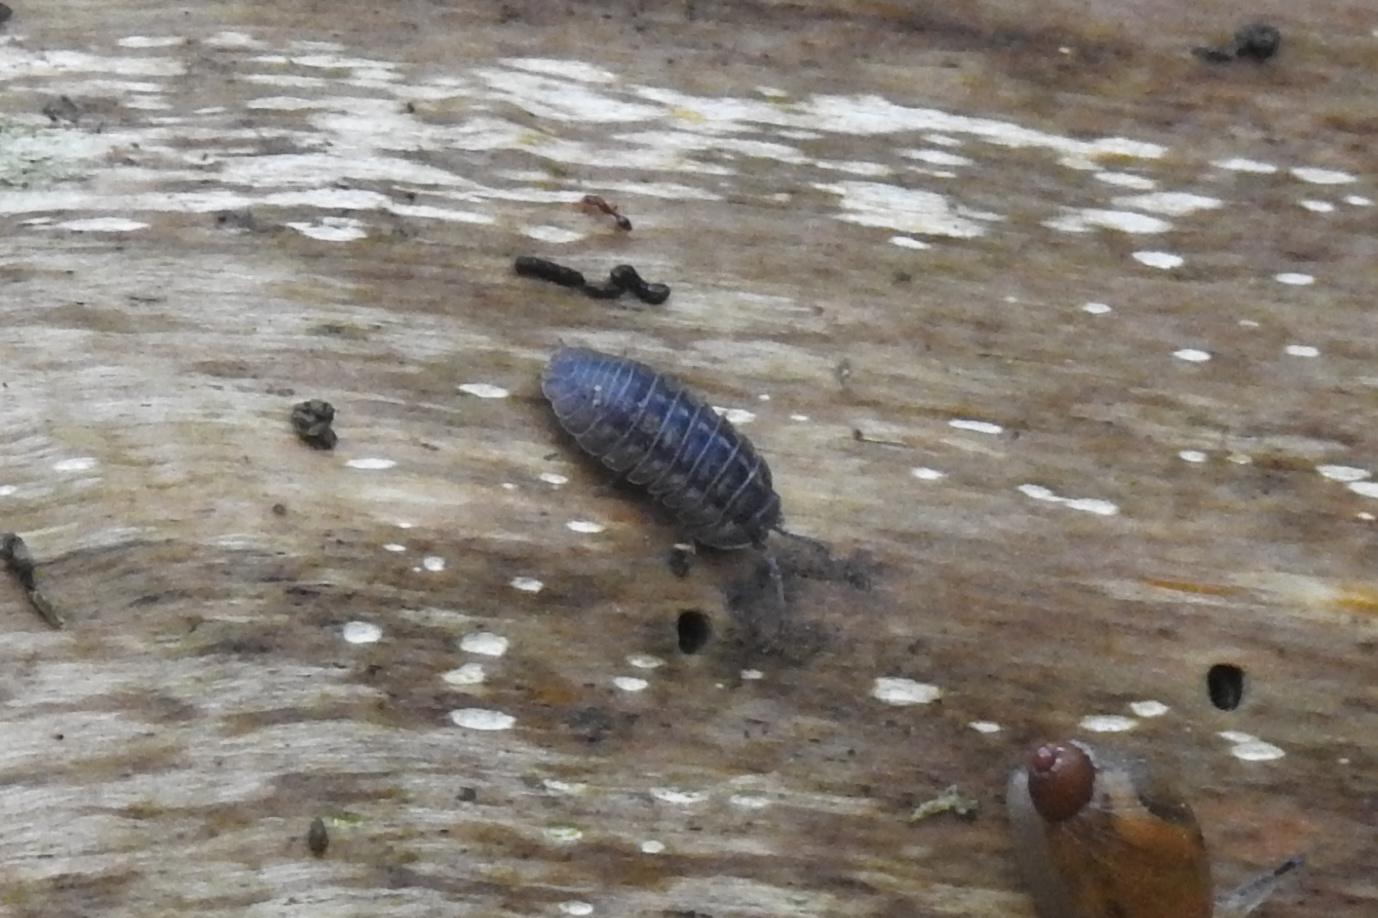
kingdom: Animalia
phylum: Arthropoda
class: Malacostraca
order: Isopoda
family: Armadillidiidae
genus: Armadillidium
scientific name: Armadillidium nasatum
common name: Isopod
